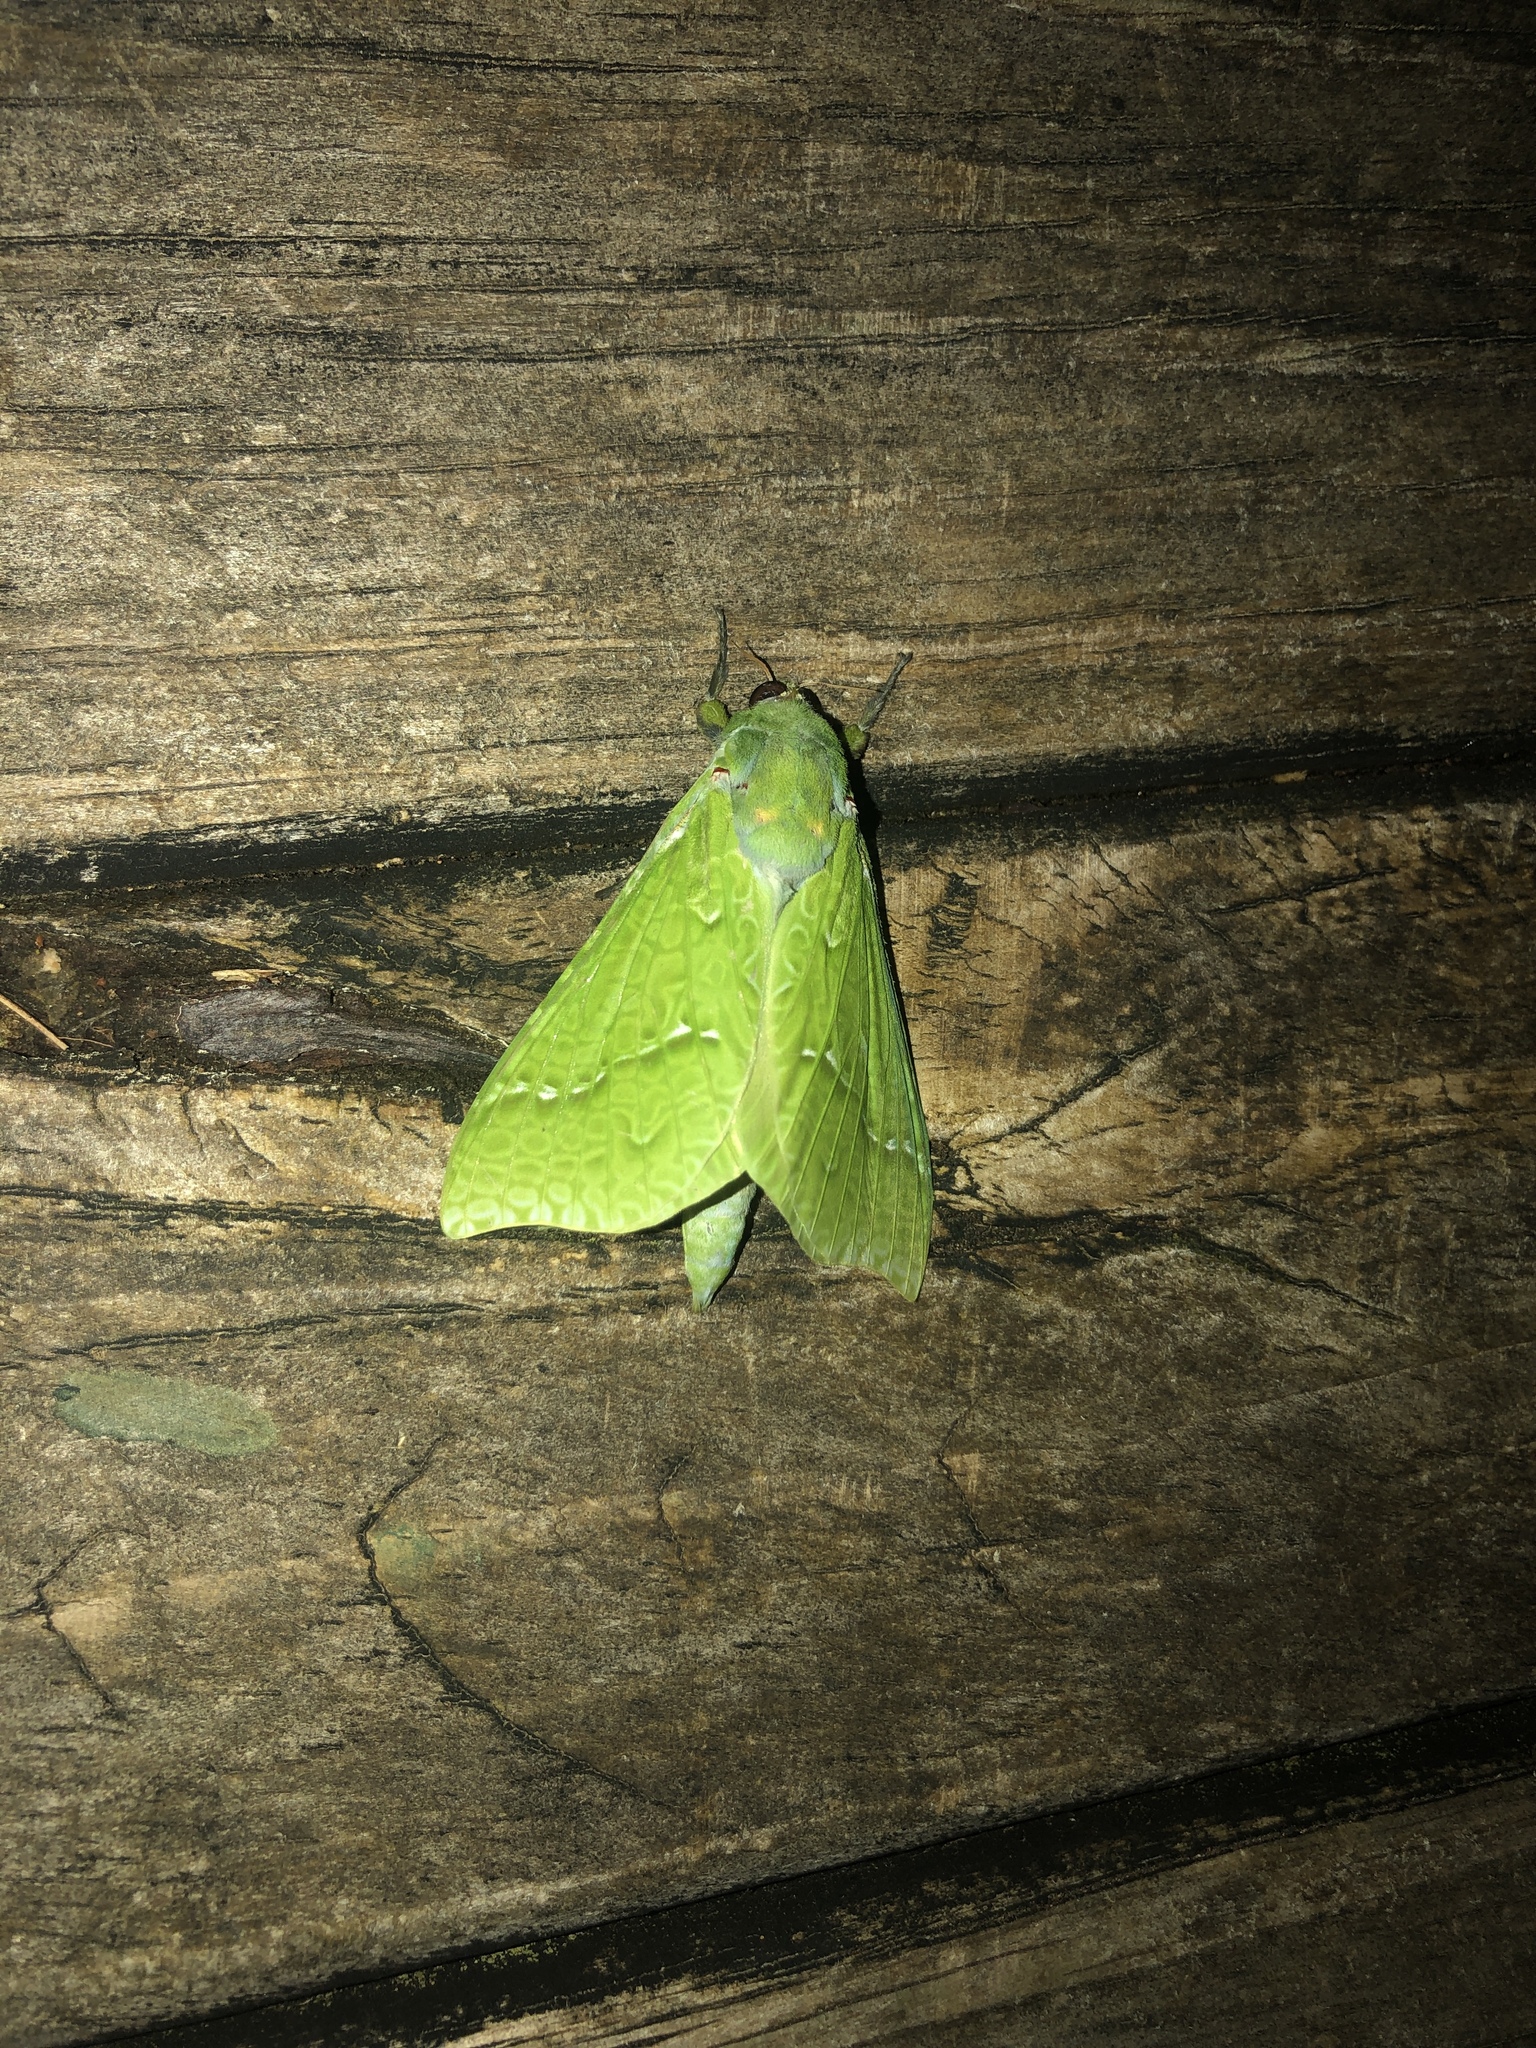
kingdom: Animalia
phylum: Arthropoda
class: Insecta
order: Lepidoptera
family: Hepialidae
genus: Aenetus
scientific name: Aenetus virescens
